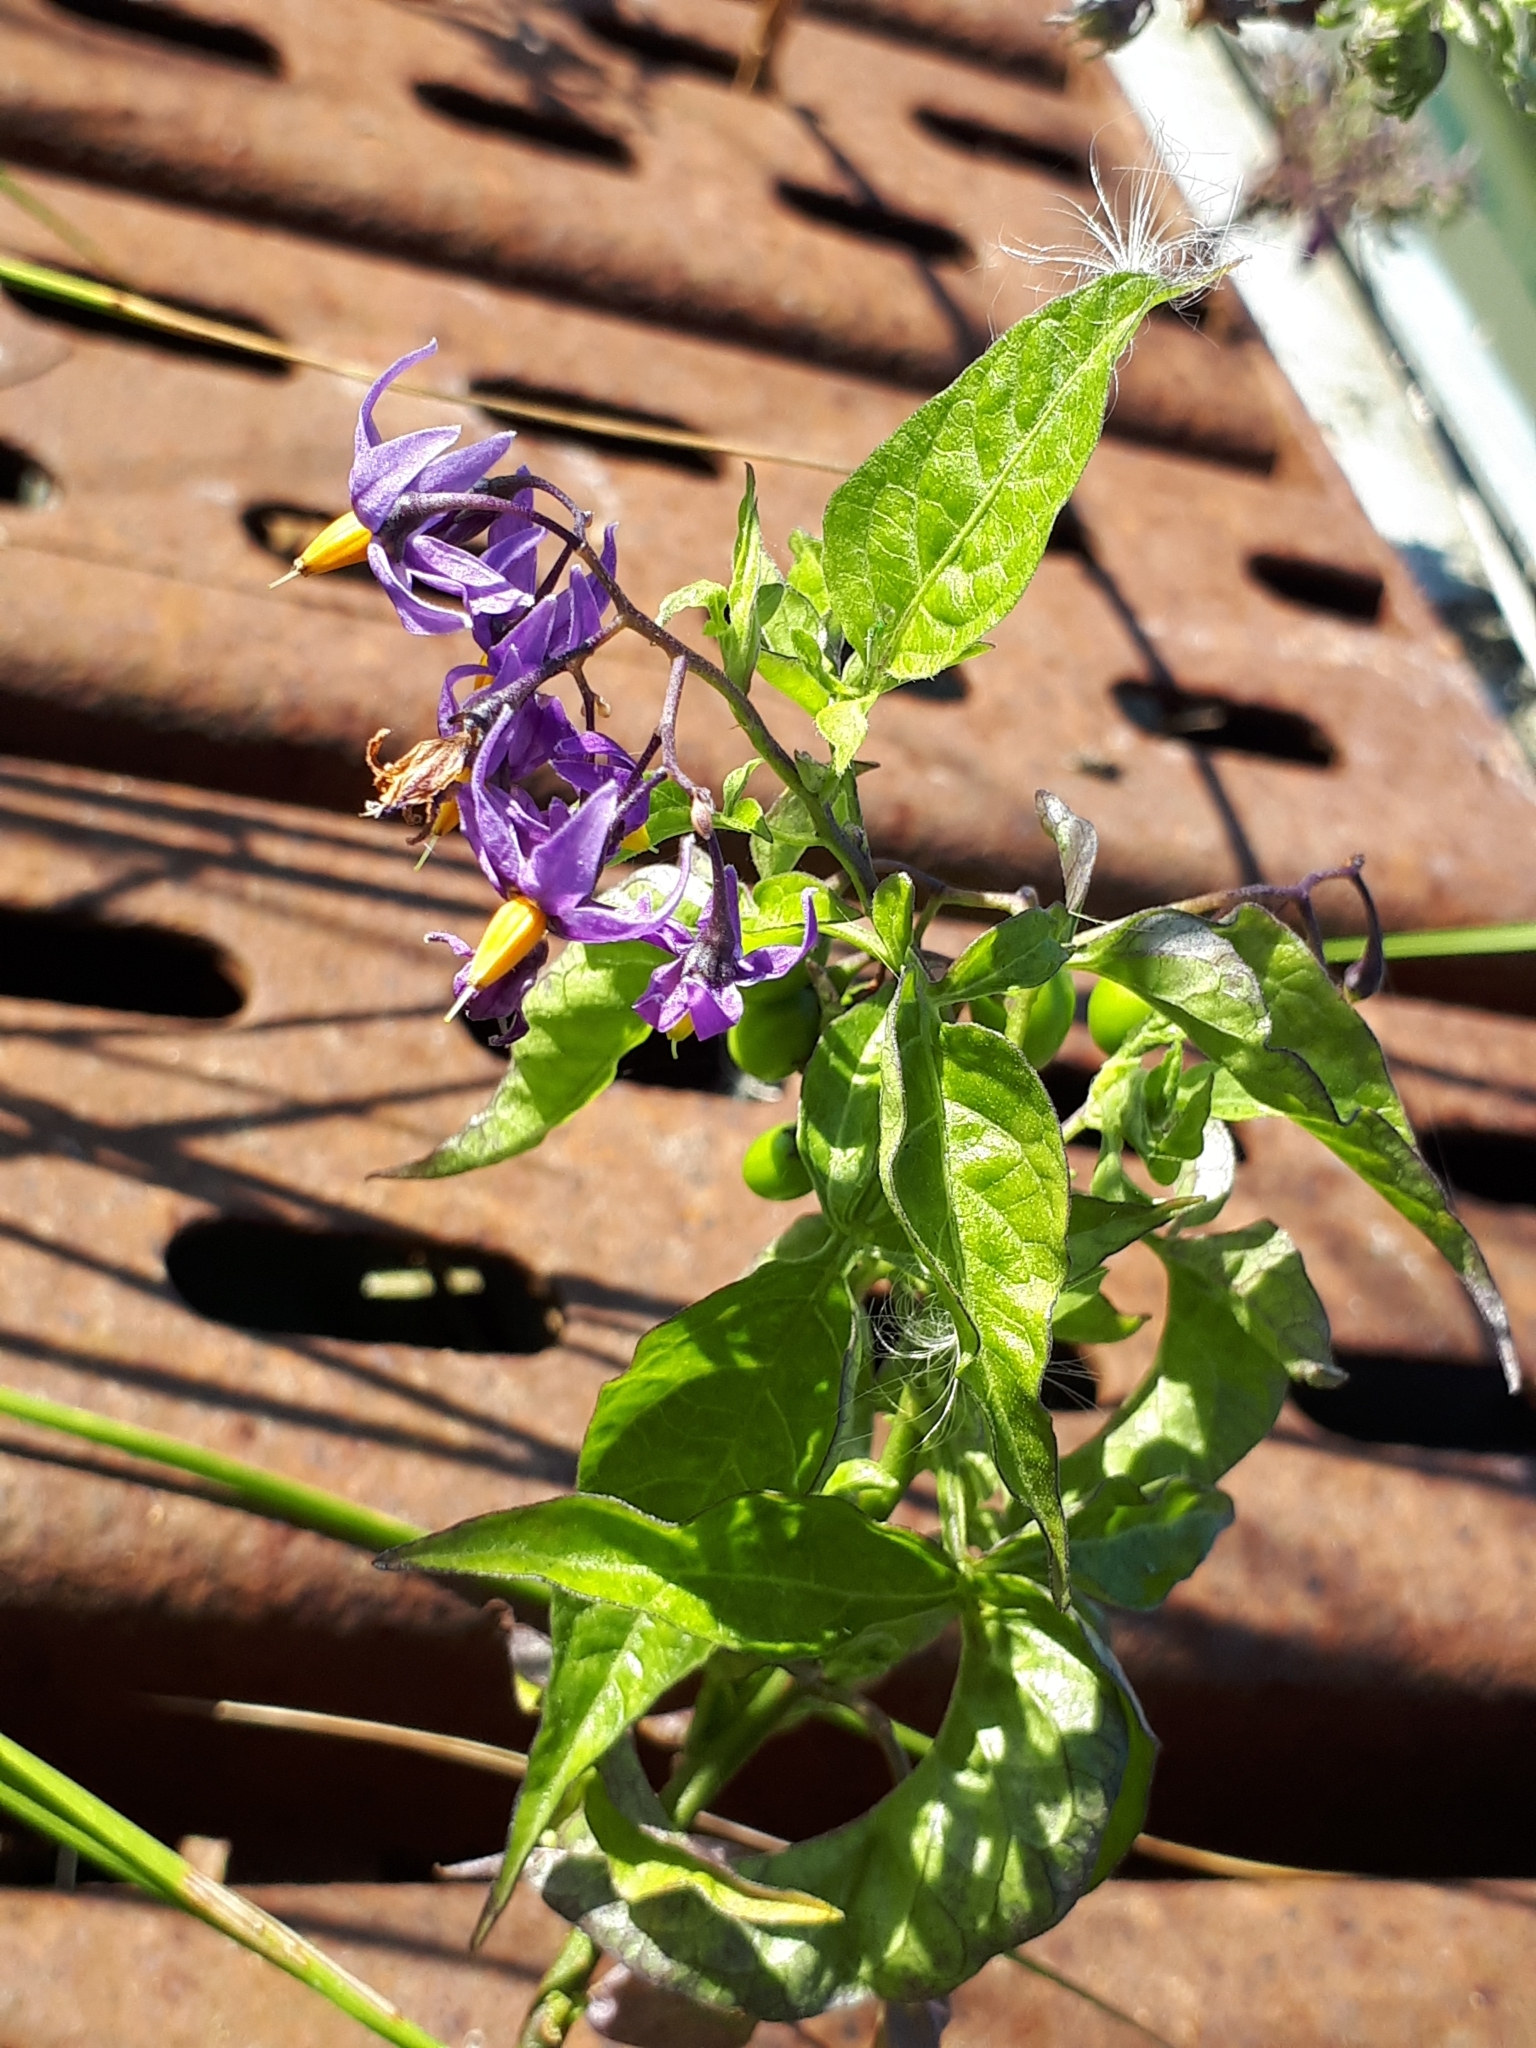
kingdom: Plantae
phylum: Tracheophyta
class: Magnoliopsida
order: Solanales
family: Solanaceae
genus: Solanum
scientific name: Solanum dulcamara
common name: Climbing nightshade
